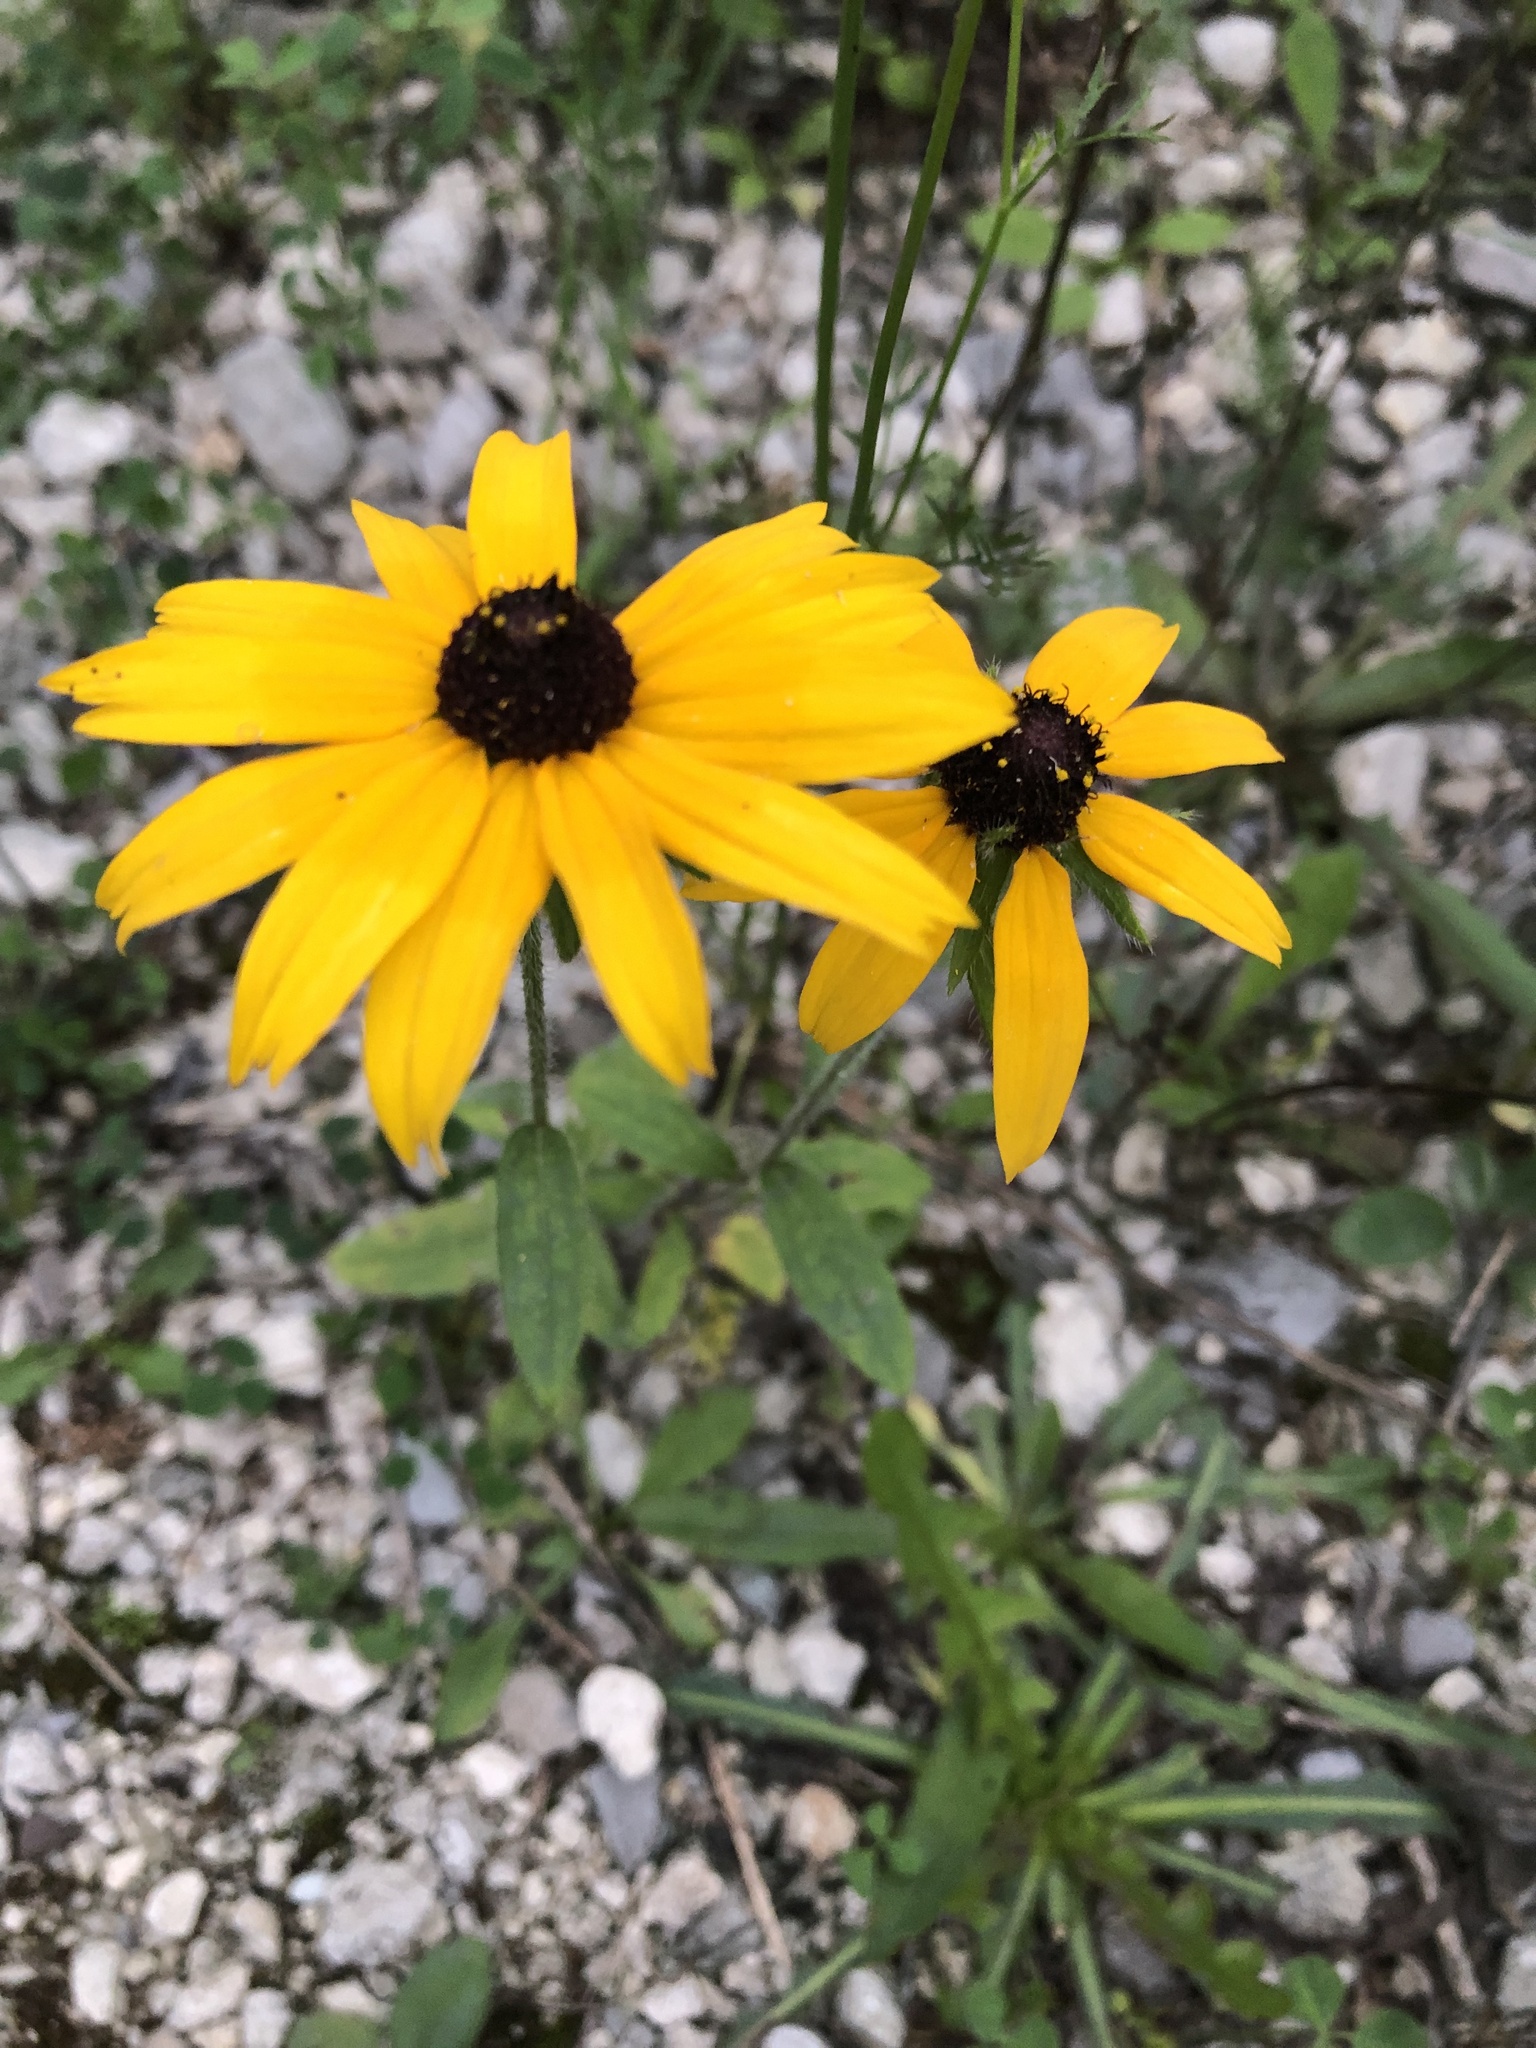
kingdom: Plantae
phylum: Tracheophyta
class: Magnoliopsida
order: Asterales
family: Asteraceae
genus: Rudbeckia
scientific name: Rudbeckia hirta
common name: Black-eyed-susan
